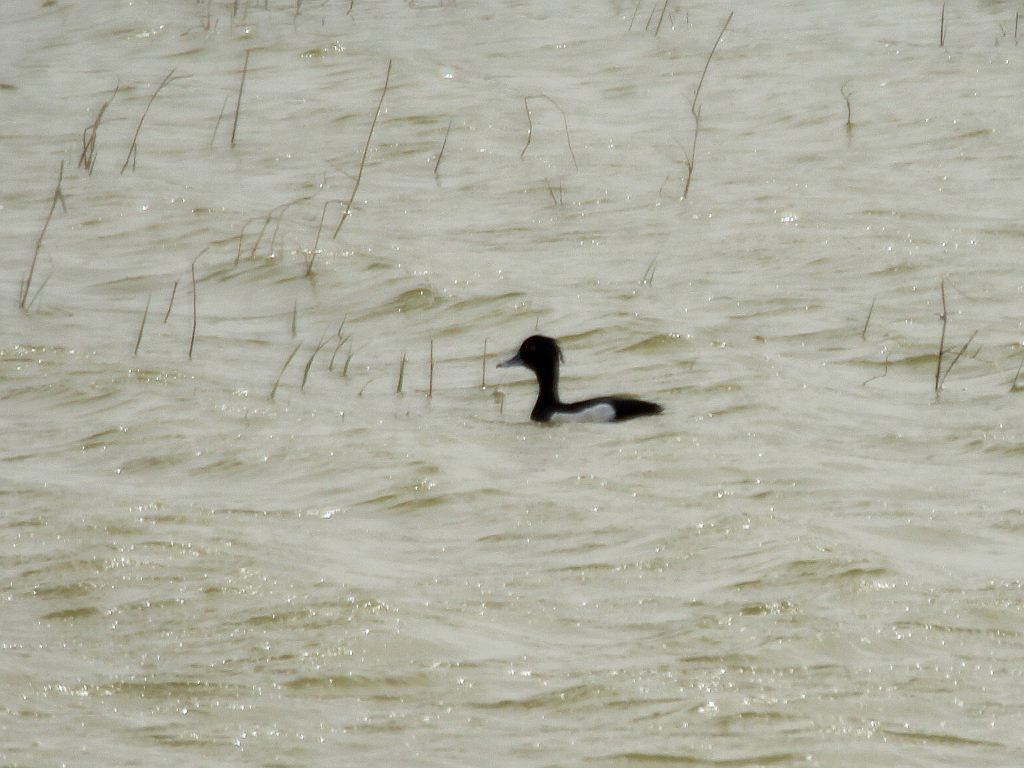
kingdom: Animalia
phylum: Chordata
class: Aves
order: Anseriformes
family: Anatidae
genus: Aythya
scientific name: Aythya fuligula
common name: Tufted duck
